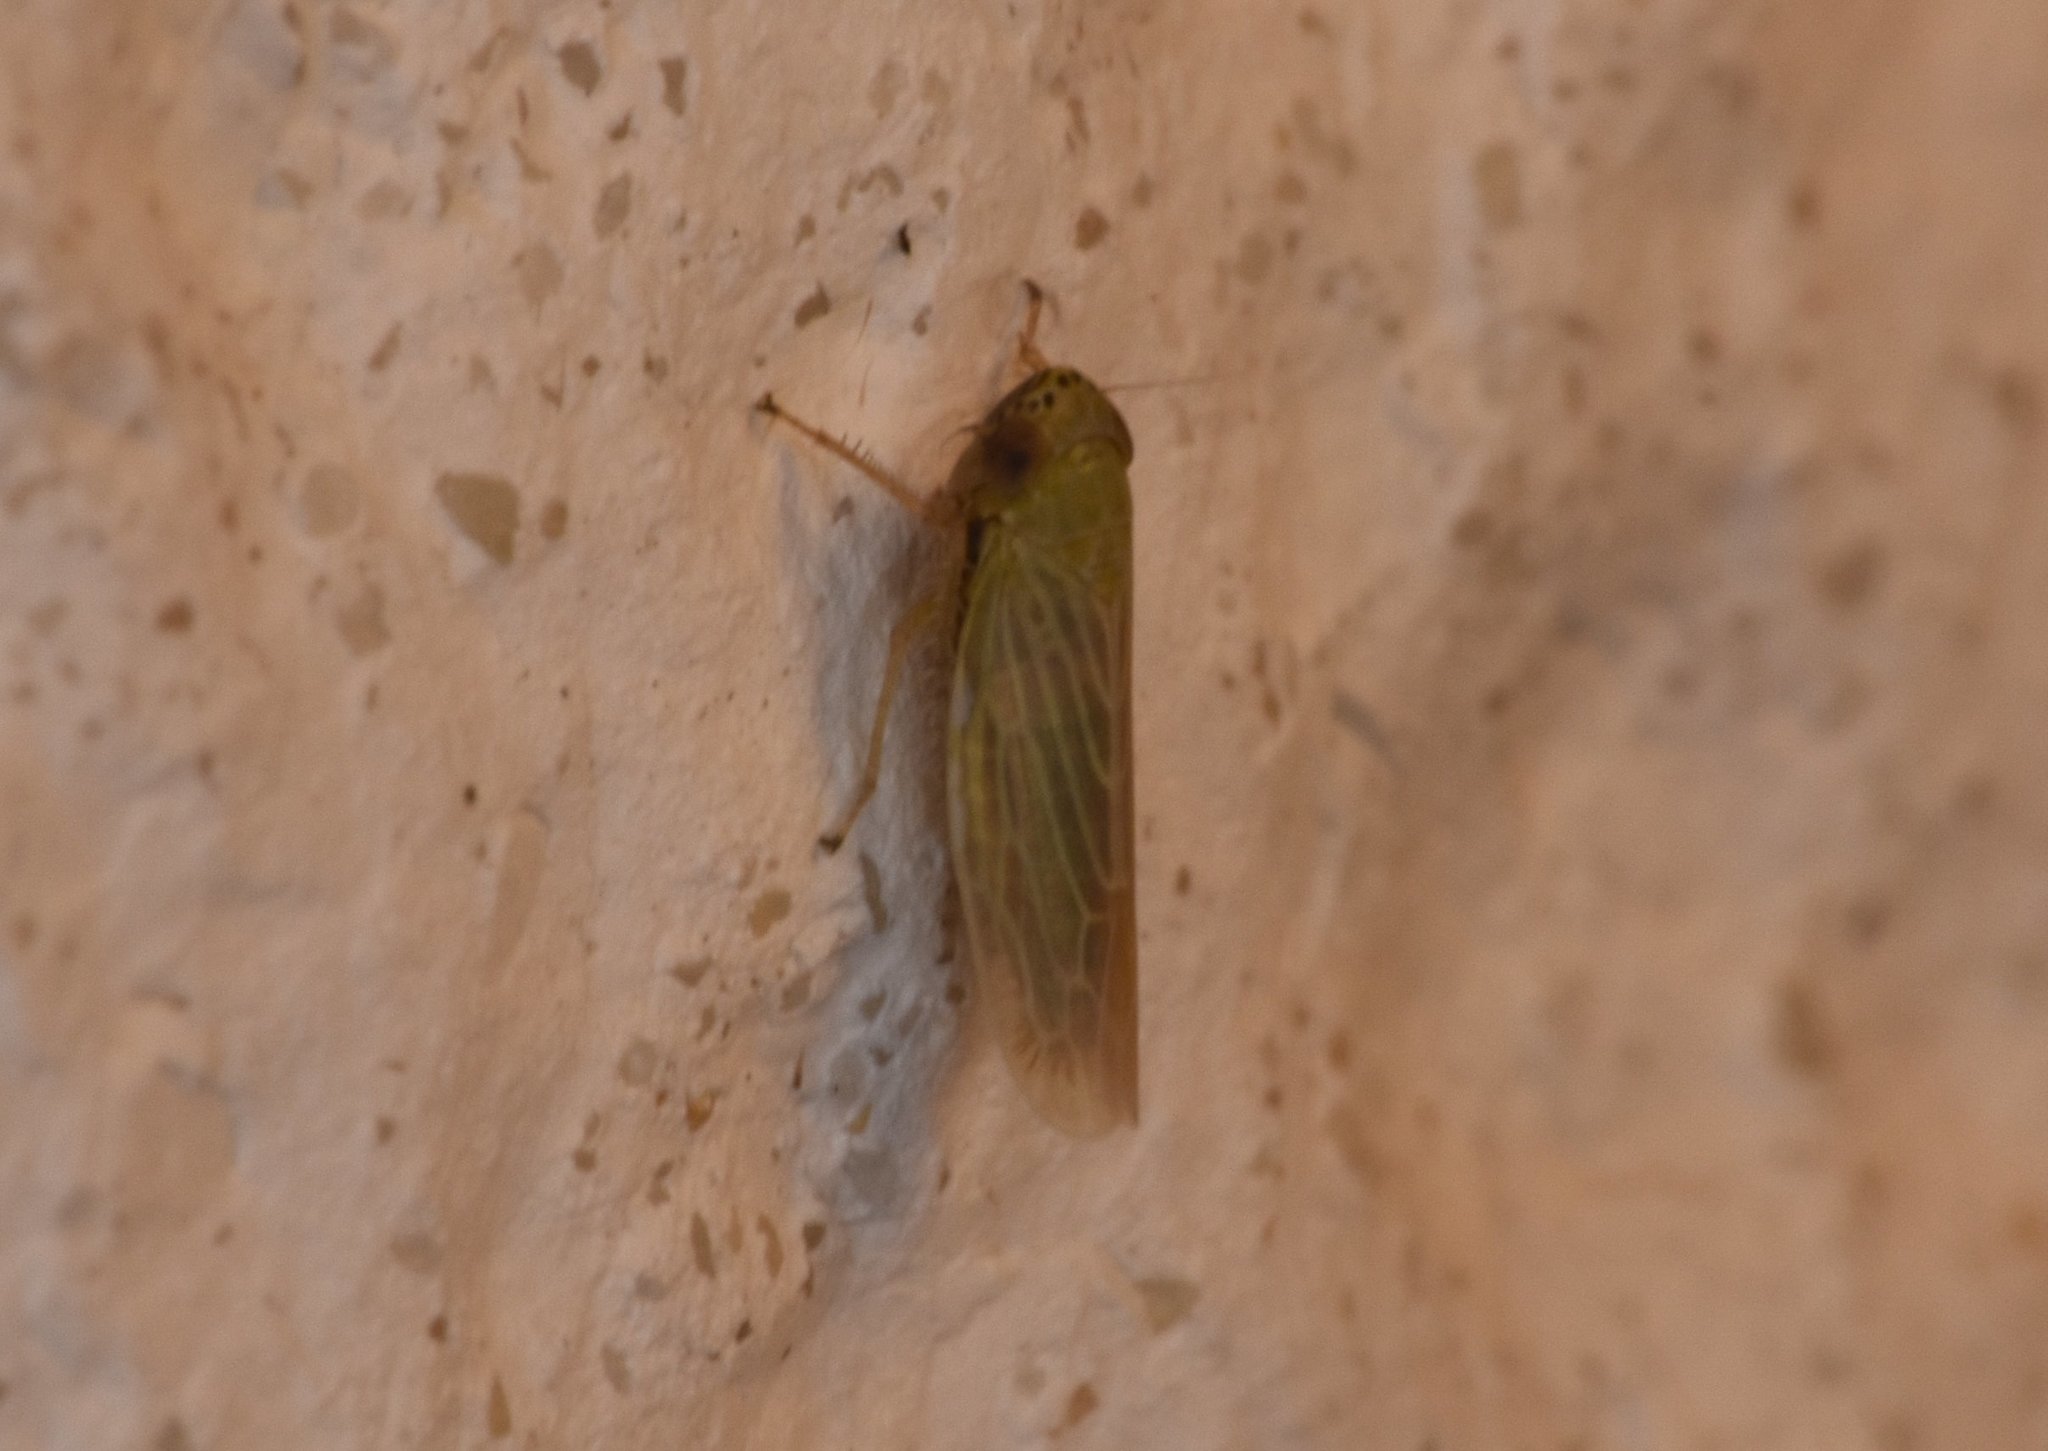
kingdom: Animalia
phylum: Arthropoda
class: Insecta
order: Hemiptera
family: Cicadellidae
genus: Graminella
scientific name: Graminella nigrifrons
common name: Blackfaced leafhopper
